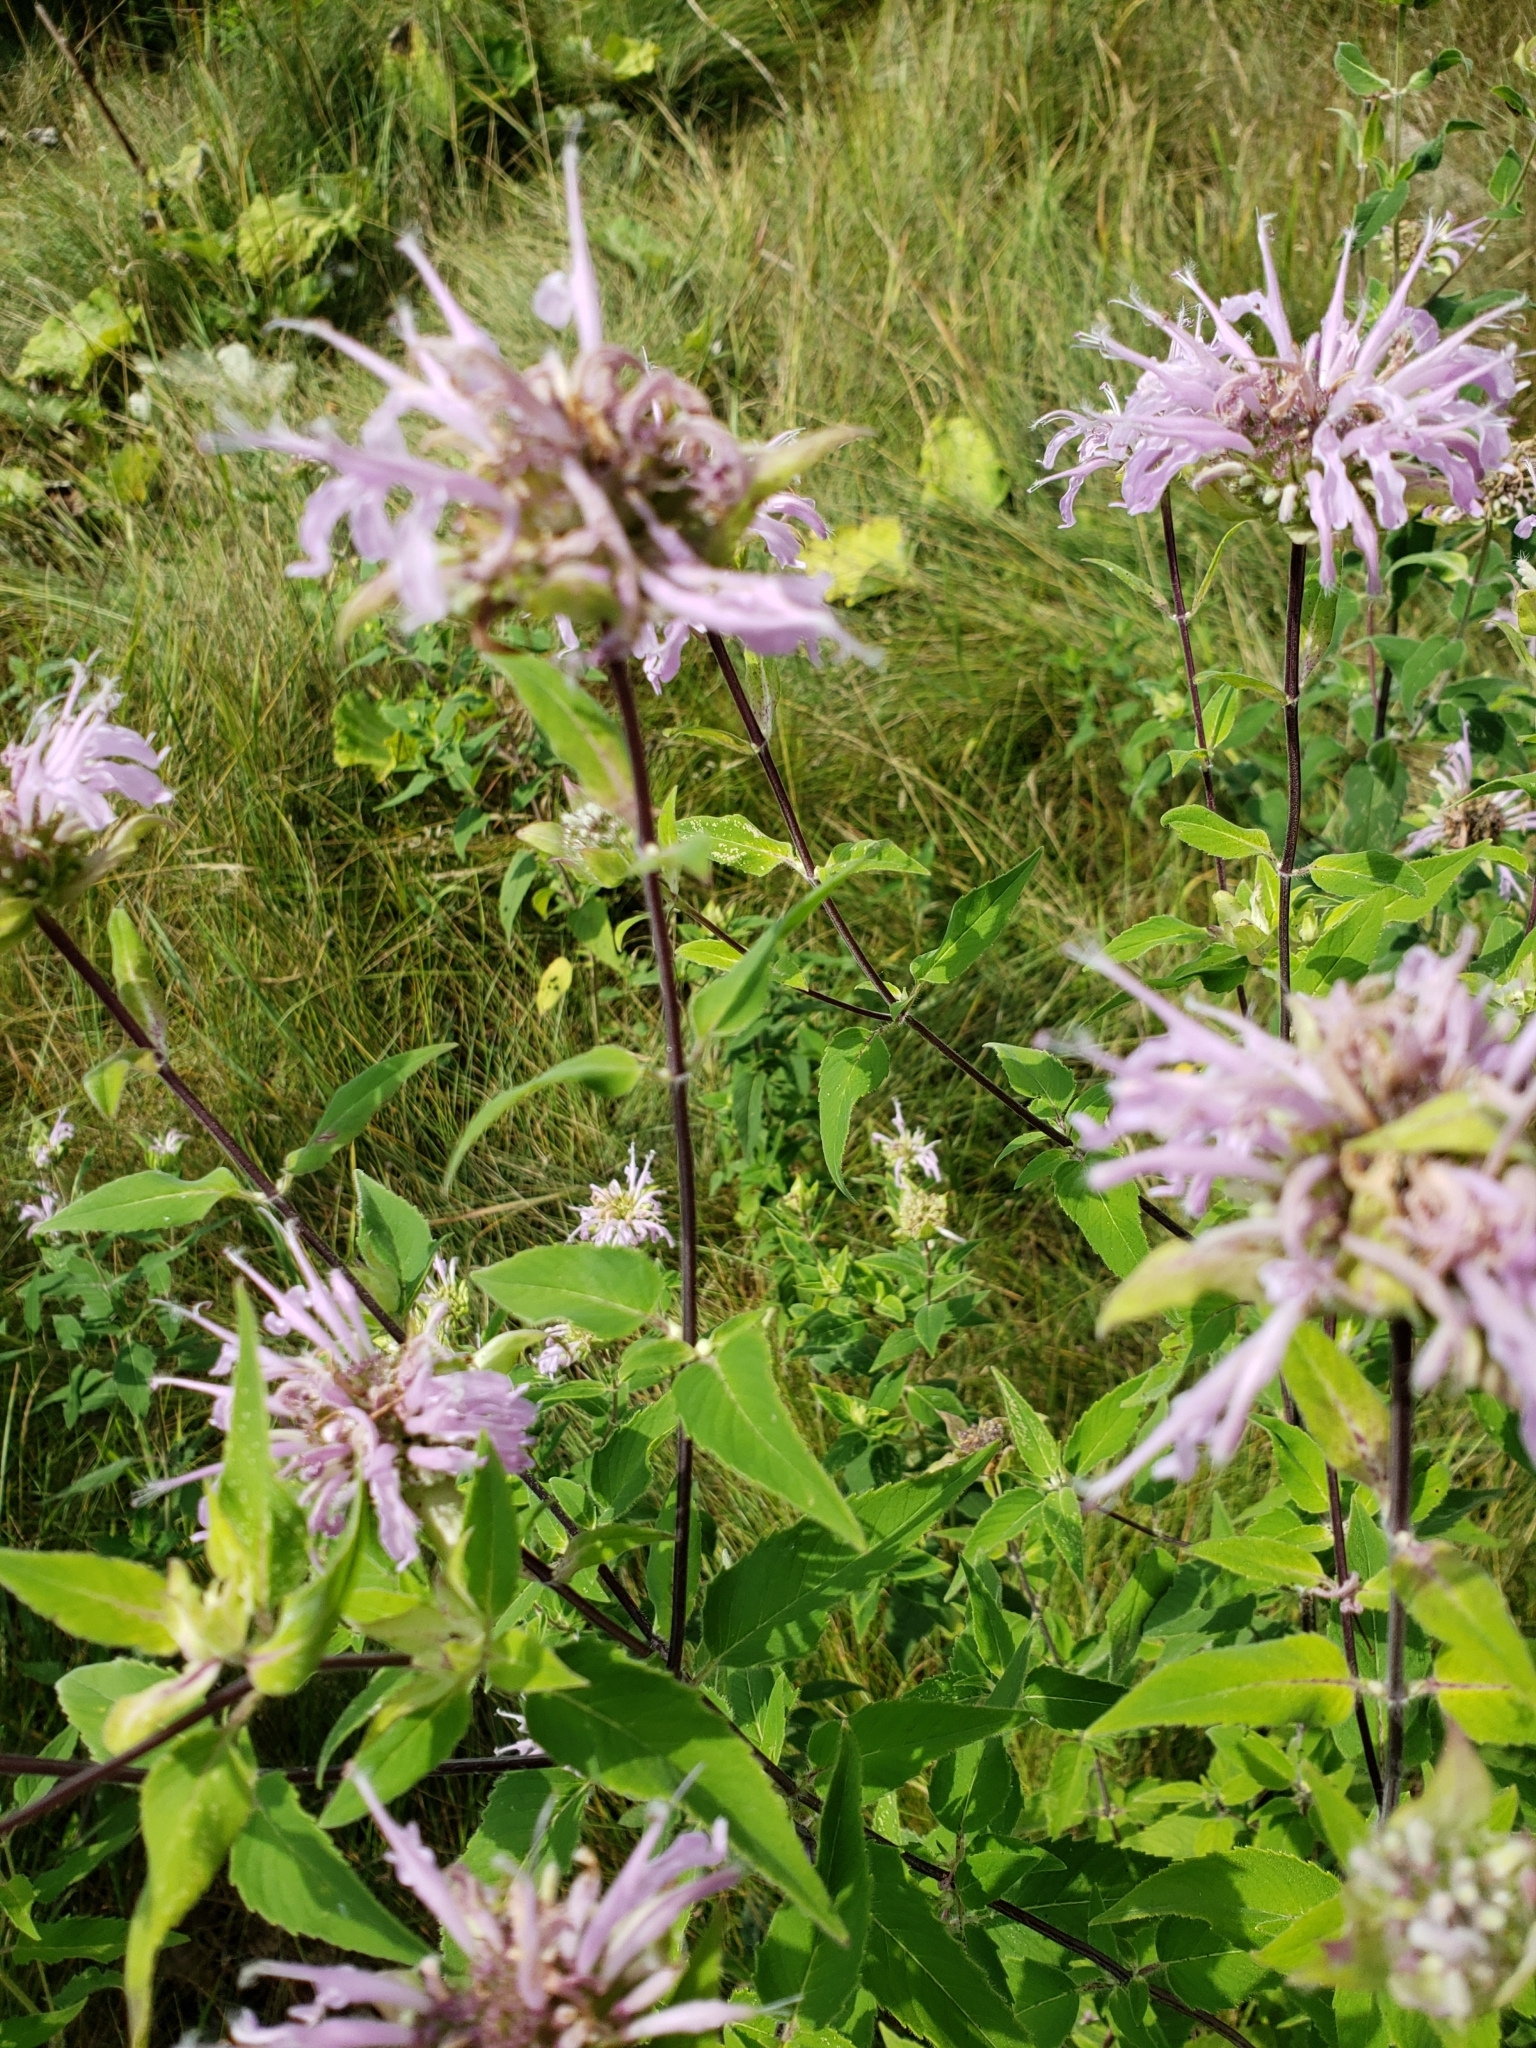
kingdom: Plantae
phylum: Tracheophyta
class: Magnoliopsida
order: Lamiales
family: Lamiaceae
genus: Monarda
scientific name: Monarda fistulosa
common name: Purple beebalm
